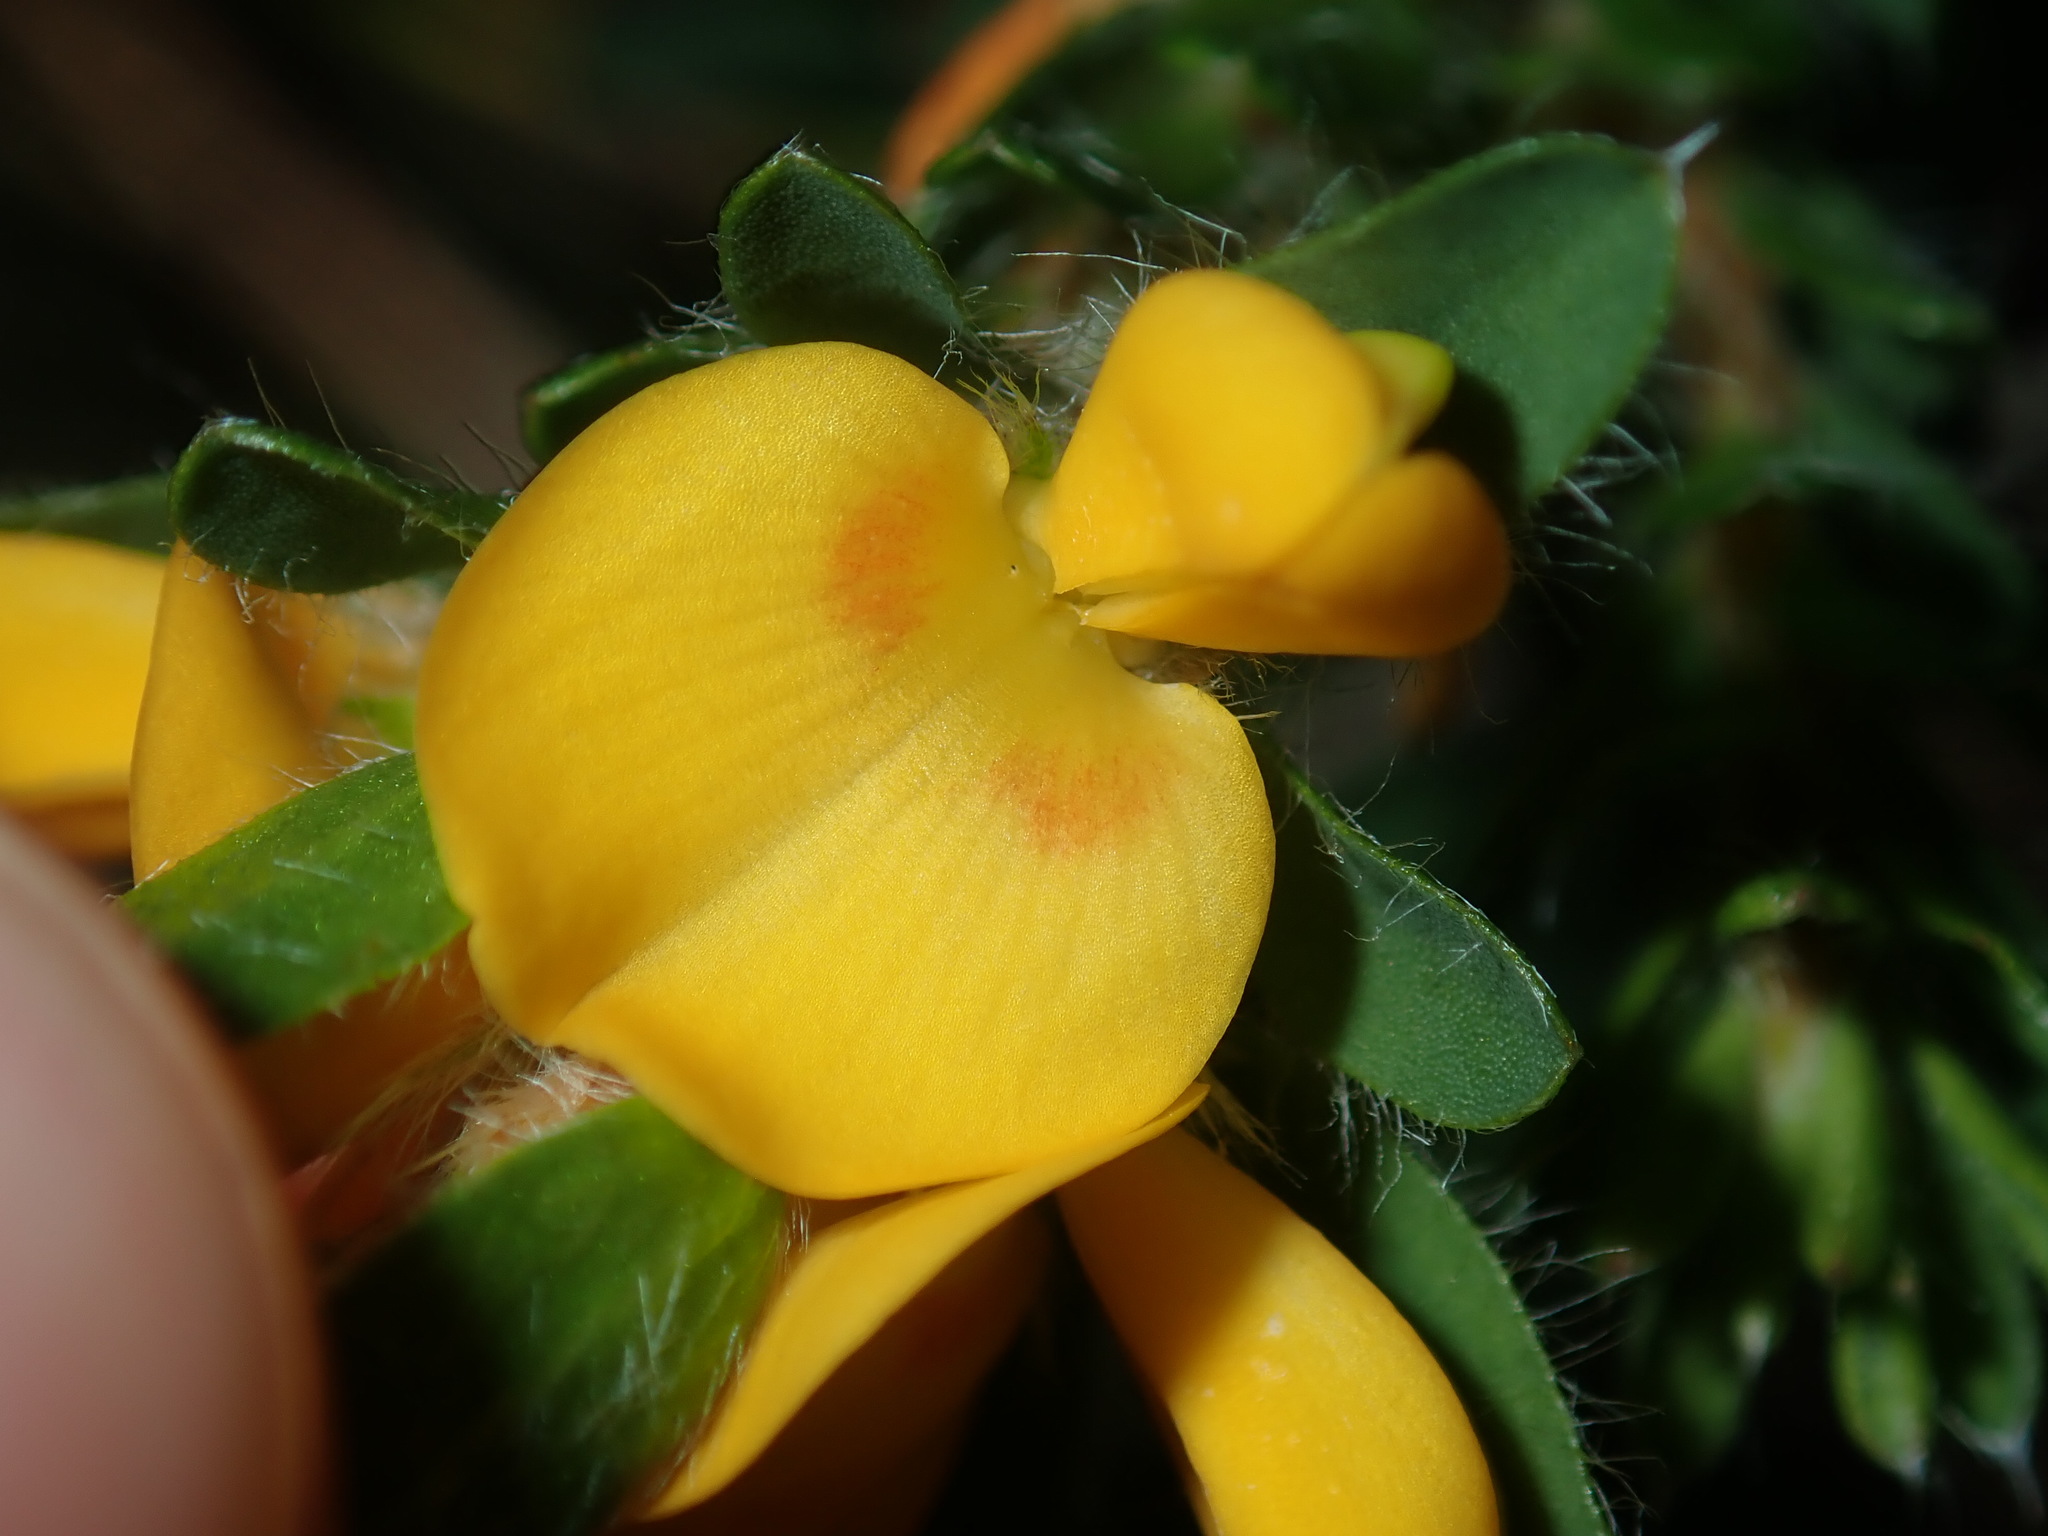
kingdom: Plantae
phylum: Tracheophyta
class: Magnoliopsida
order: Fabales
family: Fabaceae
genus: Pultenaea
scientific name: Pultenaea tuberculata
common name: Wreath bush-pea
